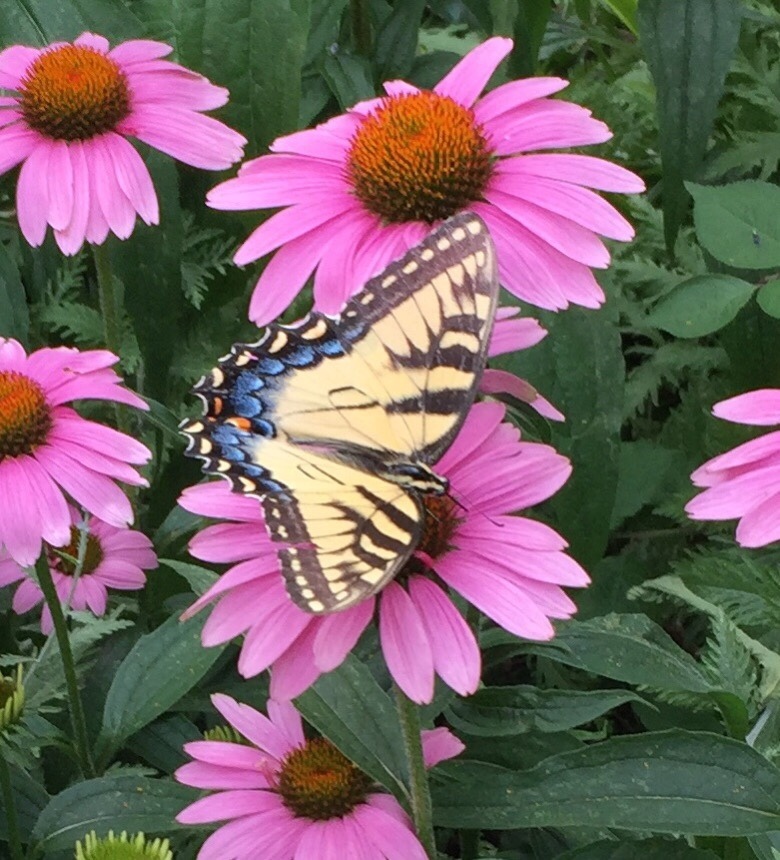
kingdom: Animalia
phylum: Arthropoda
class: Insecta
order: Lepidoptera
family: Papilionidae
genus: Papilio
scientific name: Papilio glaucus
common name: Tiger swallowtail
